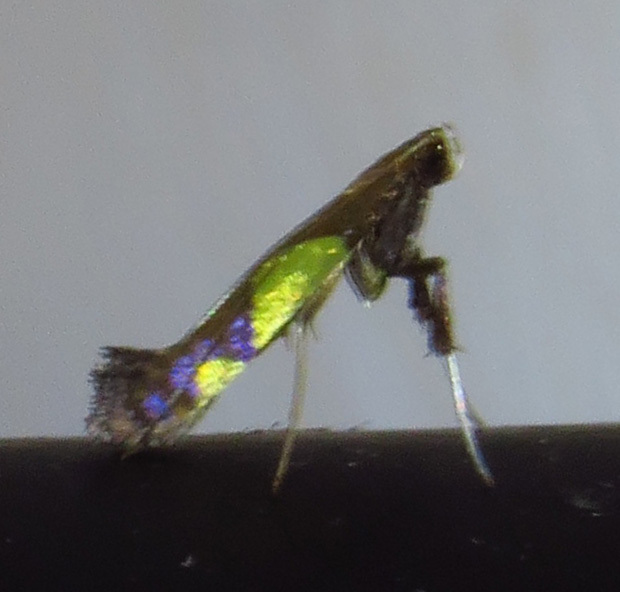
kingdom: Animalia
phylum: Arthropoda
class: Insecta
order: Lepidoptera
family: Gracillariidae
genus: Caloptilia
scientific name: Caloptilia bimaculatella
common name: Maple caloptilia moth
